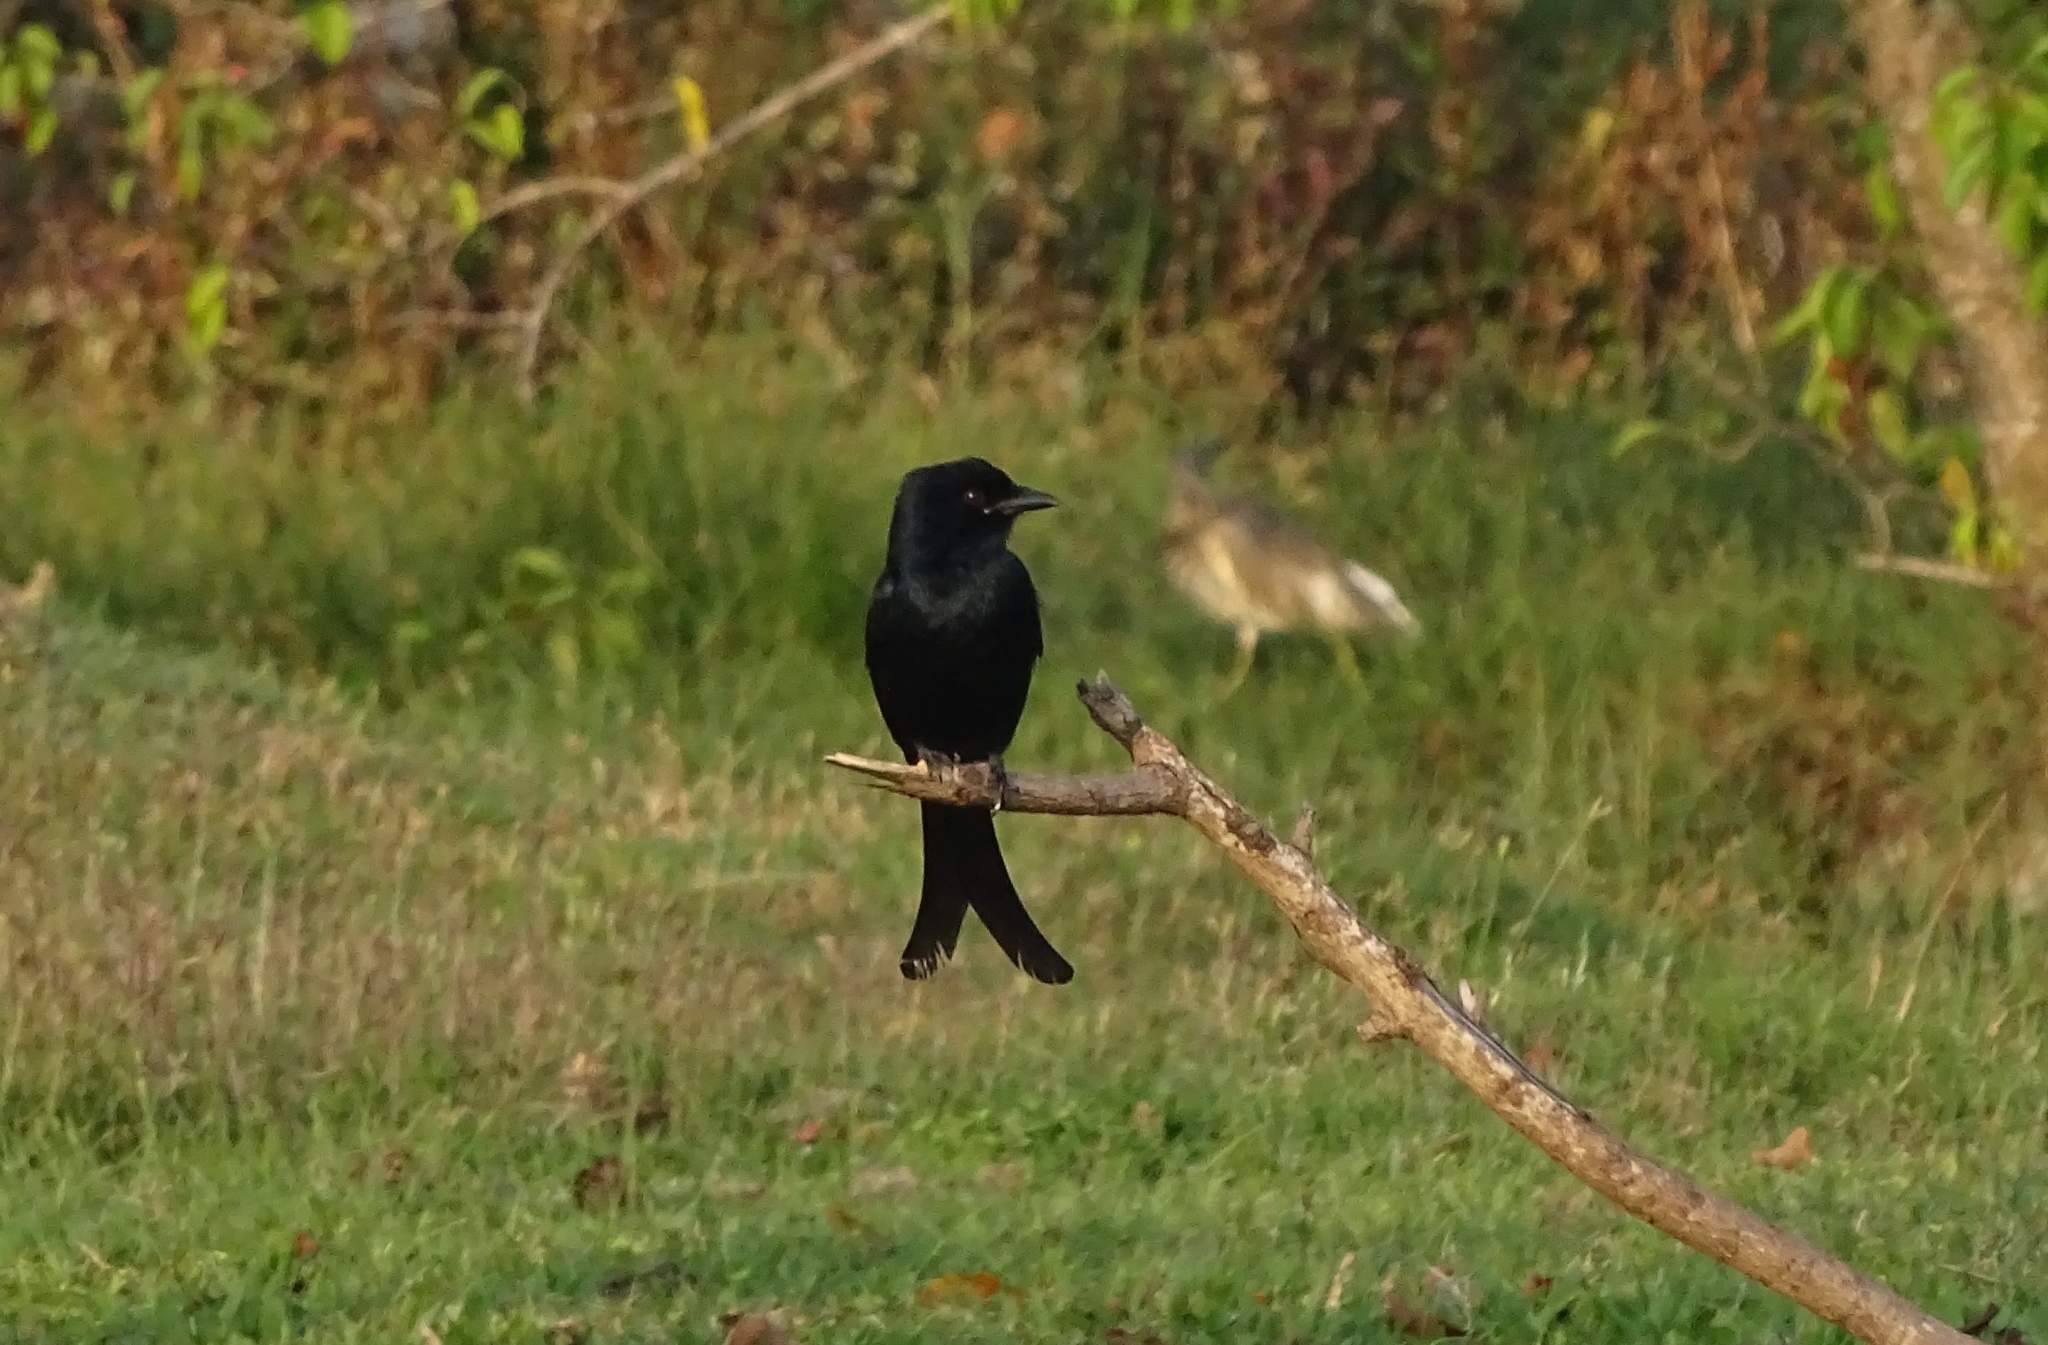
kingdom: Animalia
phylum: Chordata
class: Aves
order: Passeriformes
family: Dicruridae
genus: Dicrurus
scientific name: Dicrurus macrocercus
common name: Black drongo
